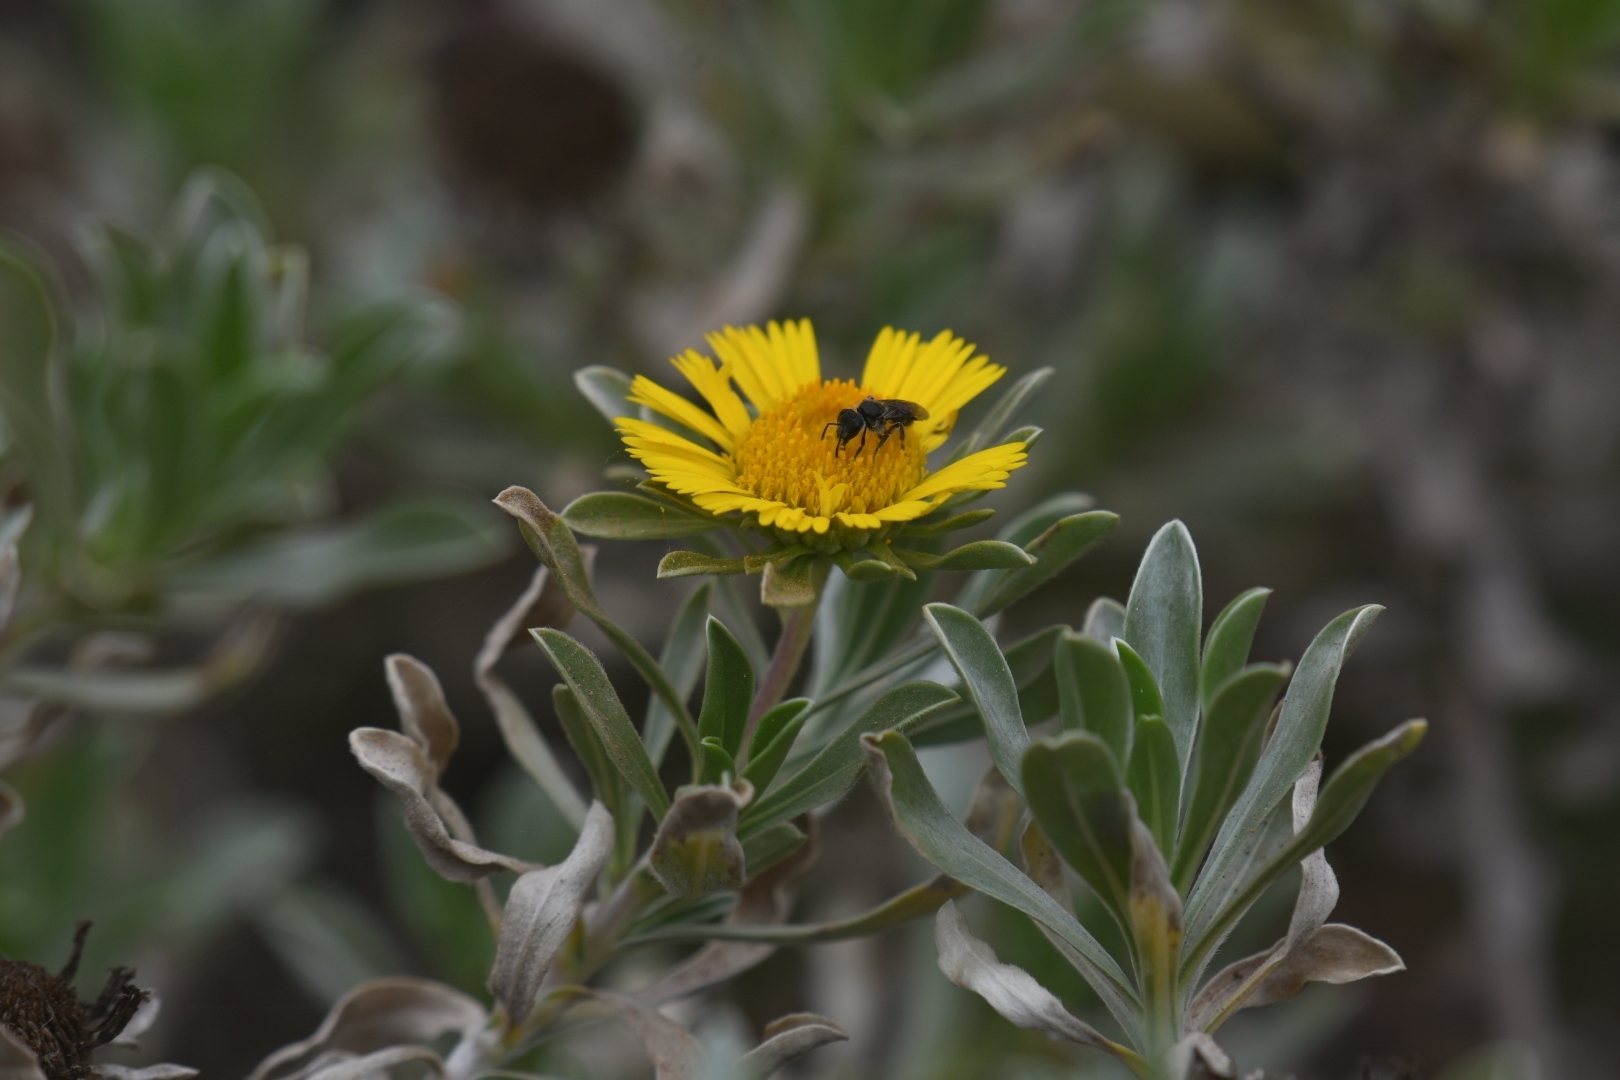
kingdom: Animalia
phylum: Arthropoda
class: Insecta
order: Hymenoptera
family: Halictidae
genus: Lasioglossum
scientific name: Lasioglossum viride
